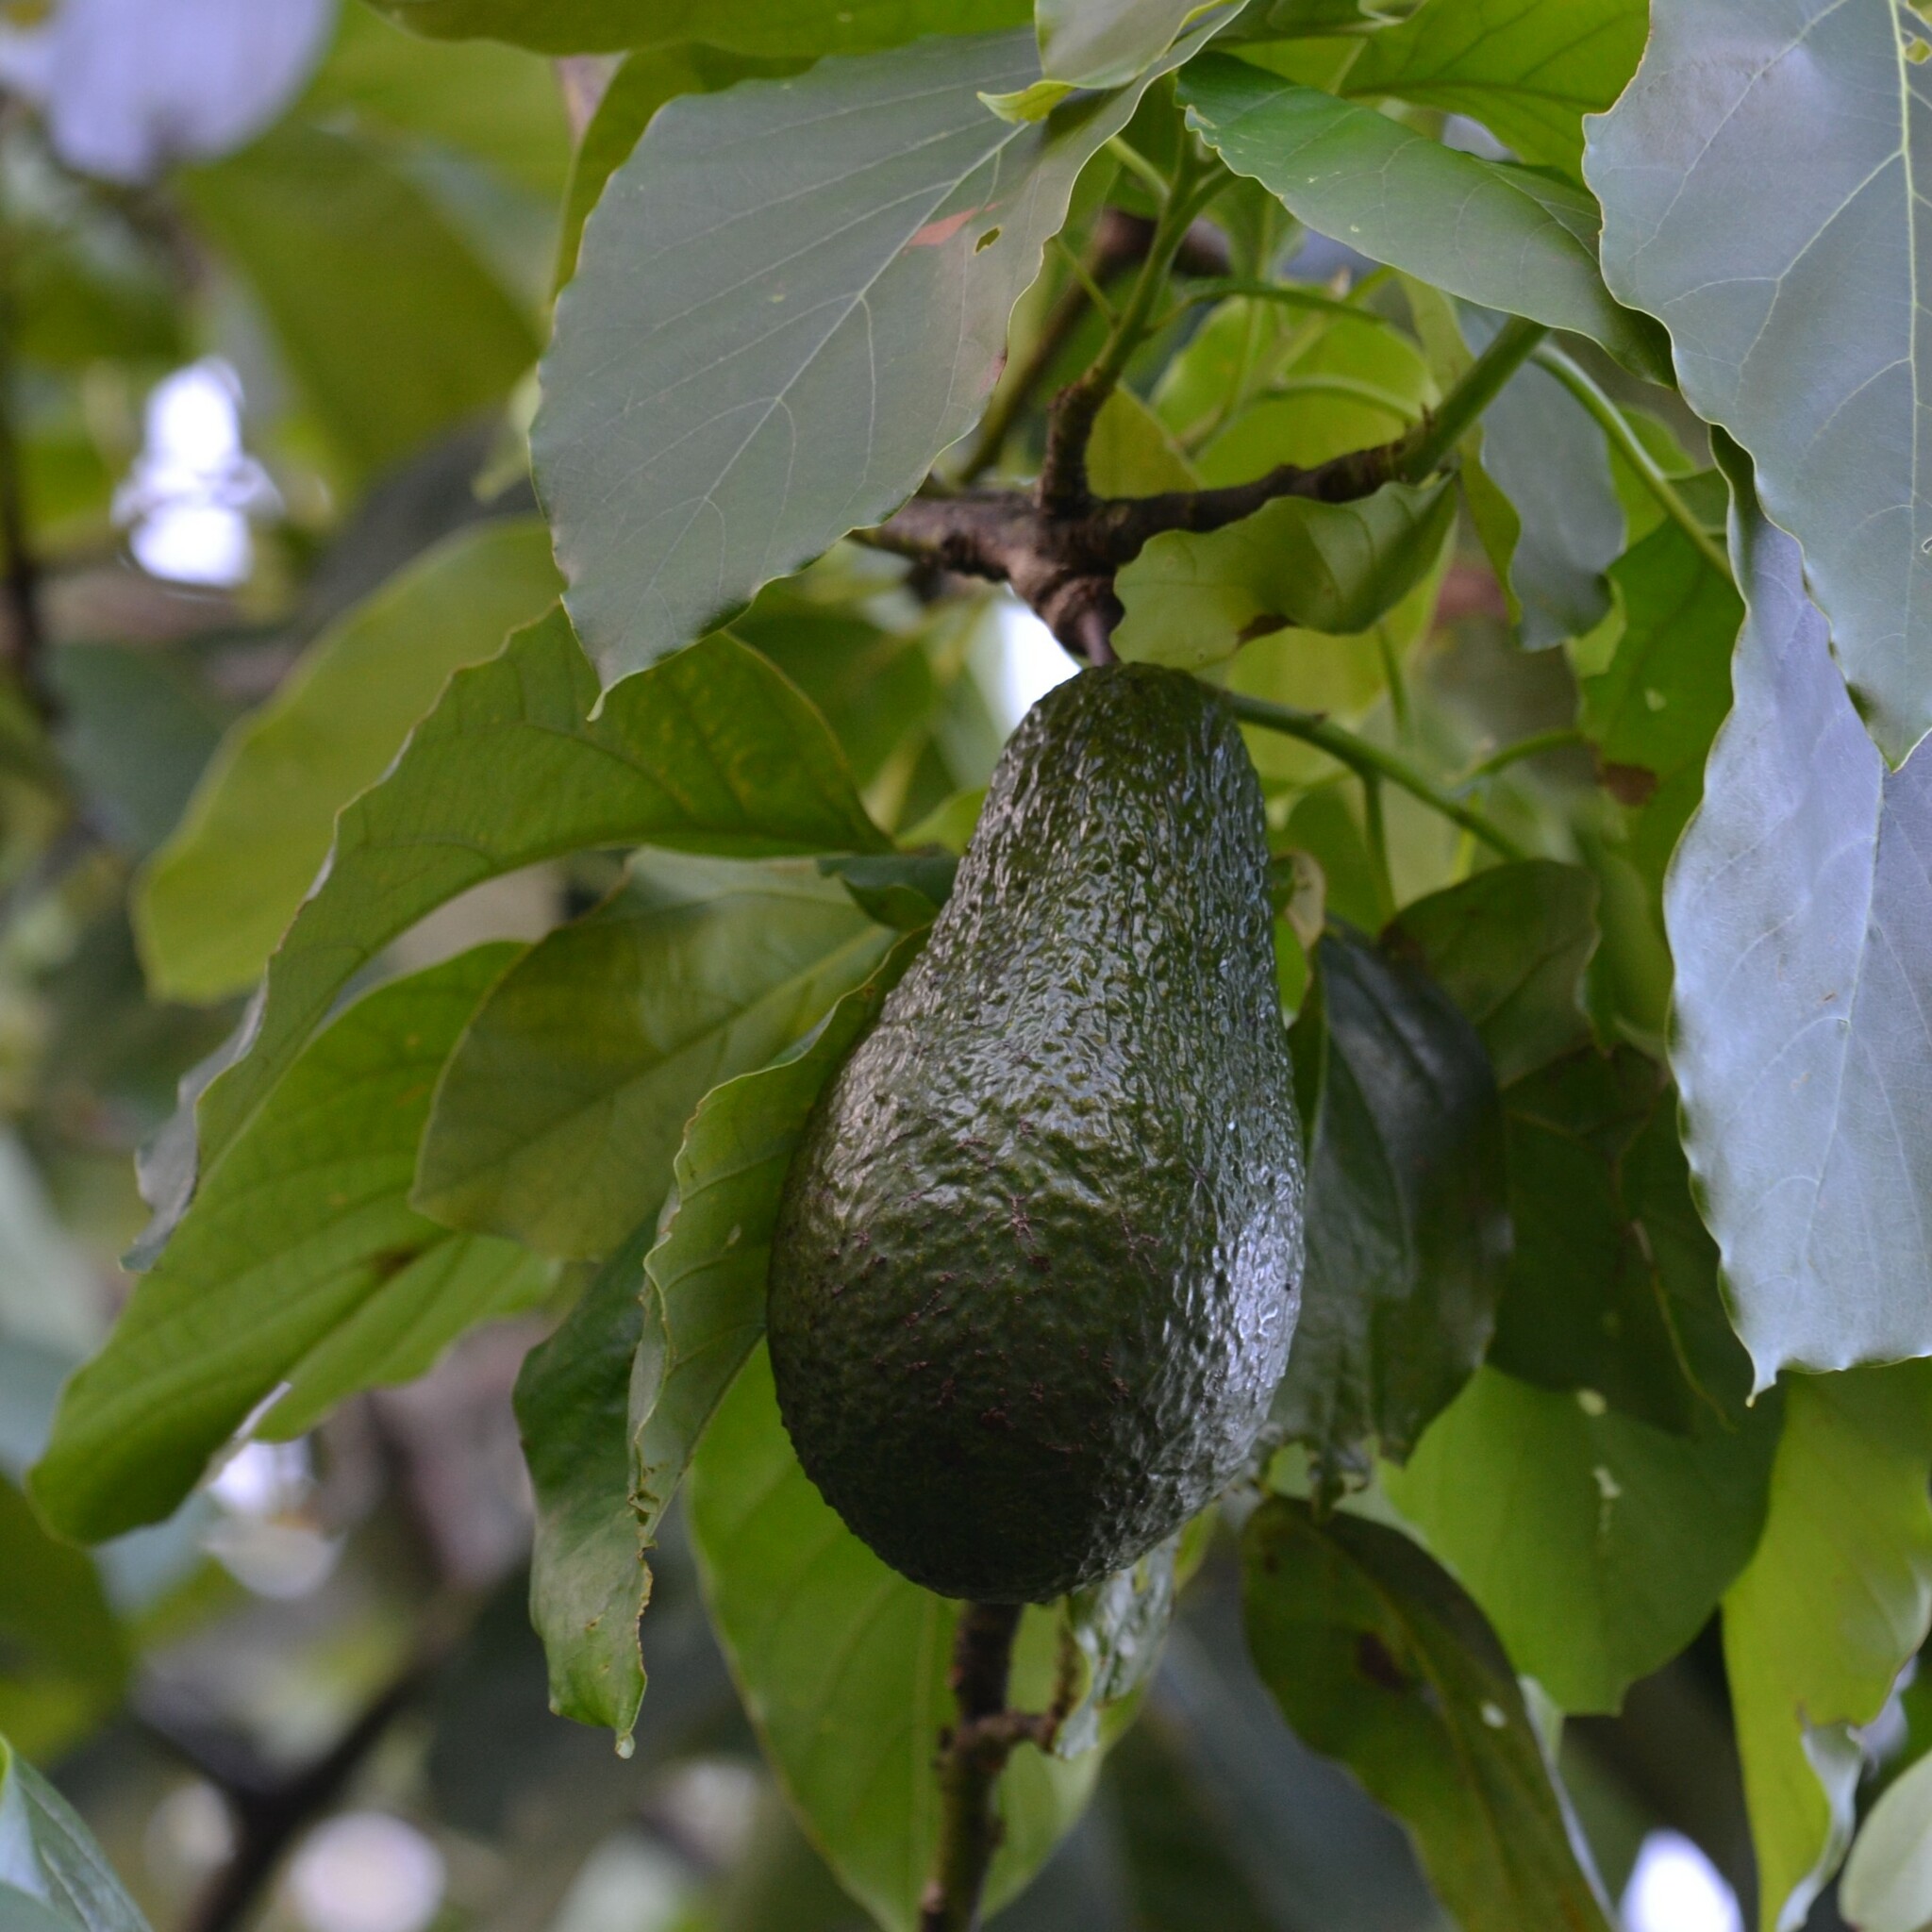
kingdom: Plantae
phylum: Tracheophyta
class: Magnoliopsida
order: Laurales
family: Lauraceae
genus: Persea
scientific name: Persea americana
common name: Avocado
